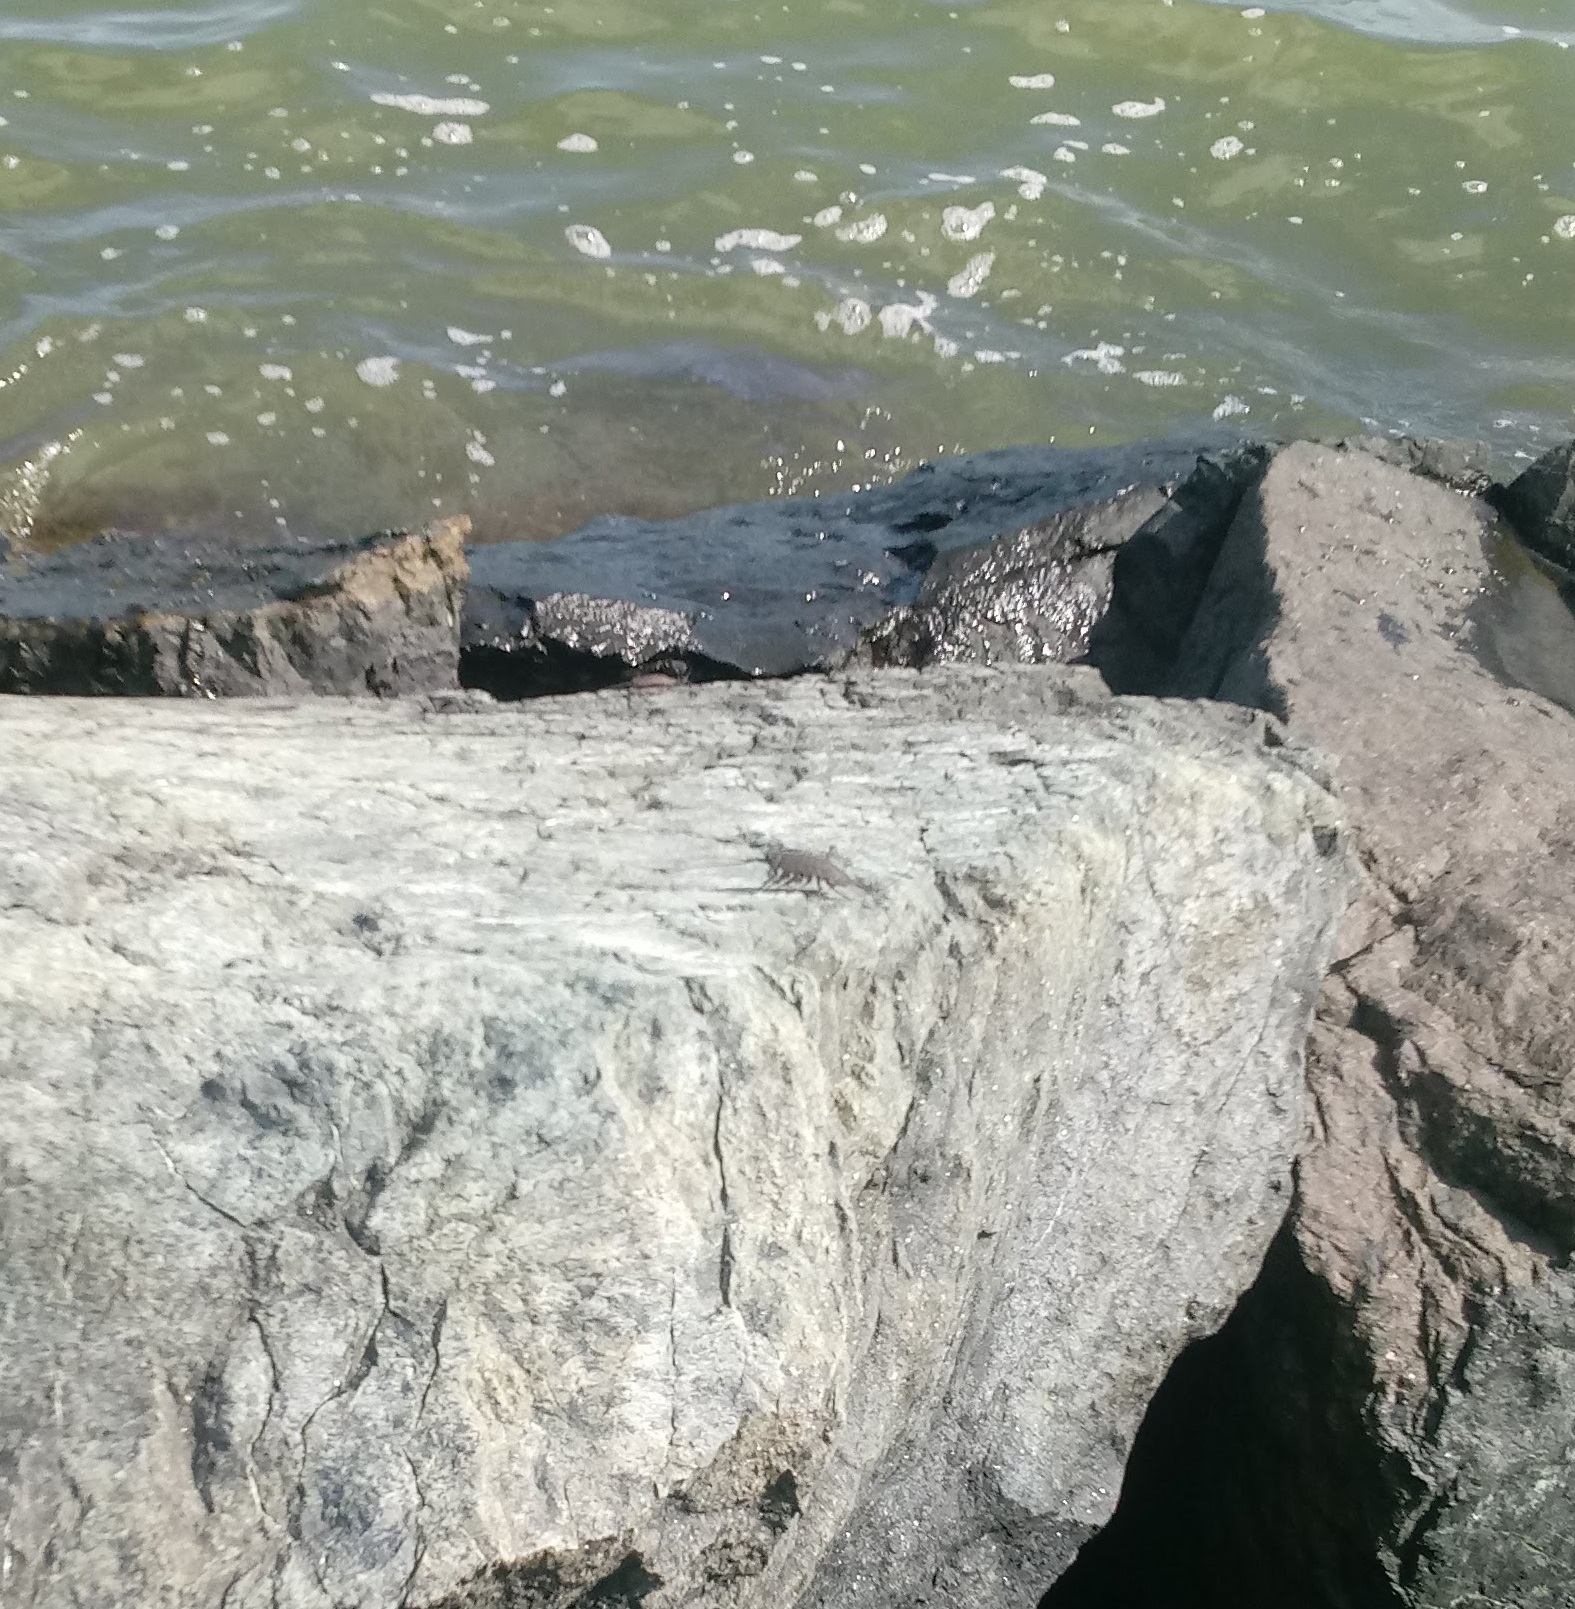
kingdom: Animalia
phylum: Arthropoda
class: Malacostraca
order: Isopoda
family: Ligiidae
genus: Ligia
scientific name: Ligia exotica
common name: Wharf roach
